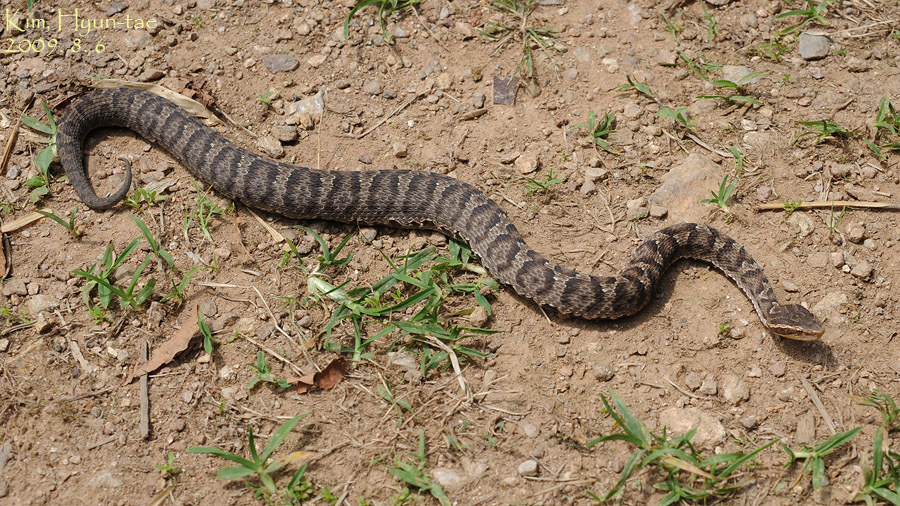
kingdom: Animalia
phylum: Chordata
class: Squamata
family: Viperidae
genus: Gloydius
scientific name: Gloydius ussuriensis
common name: Ussuri mamushi
